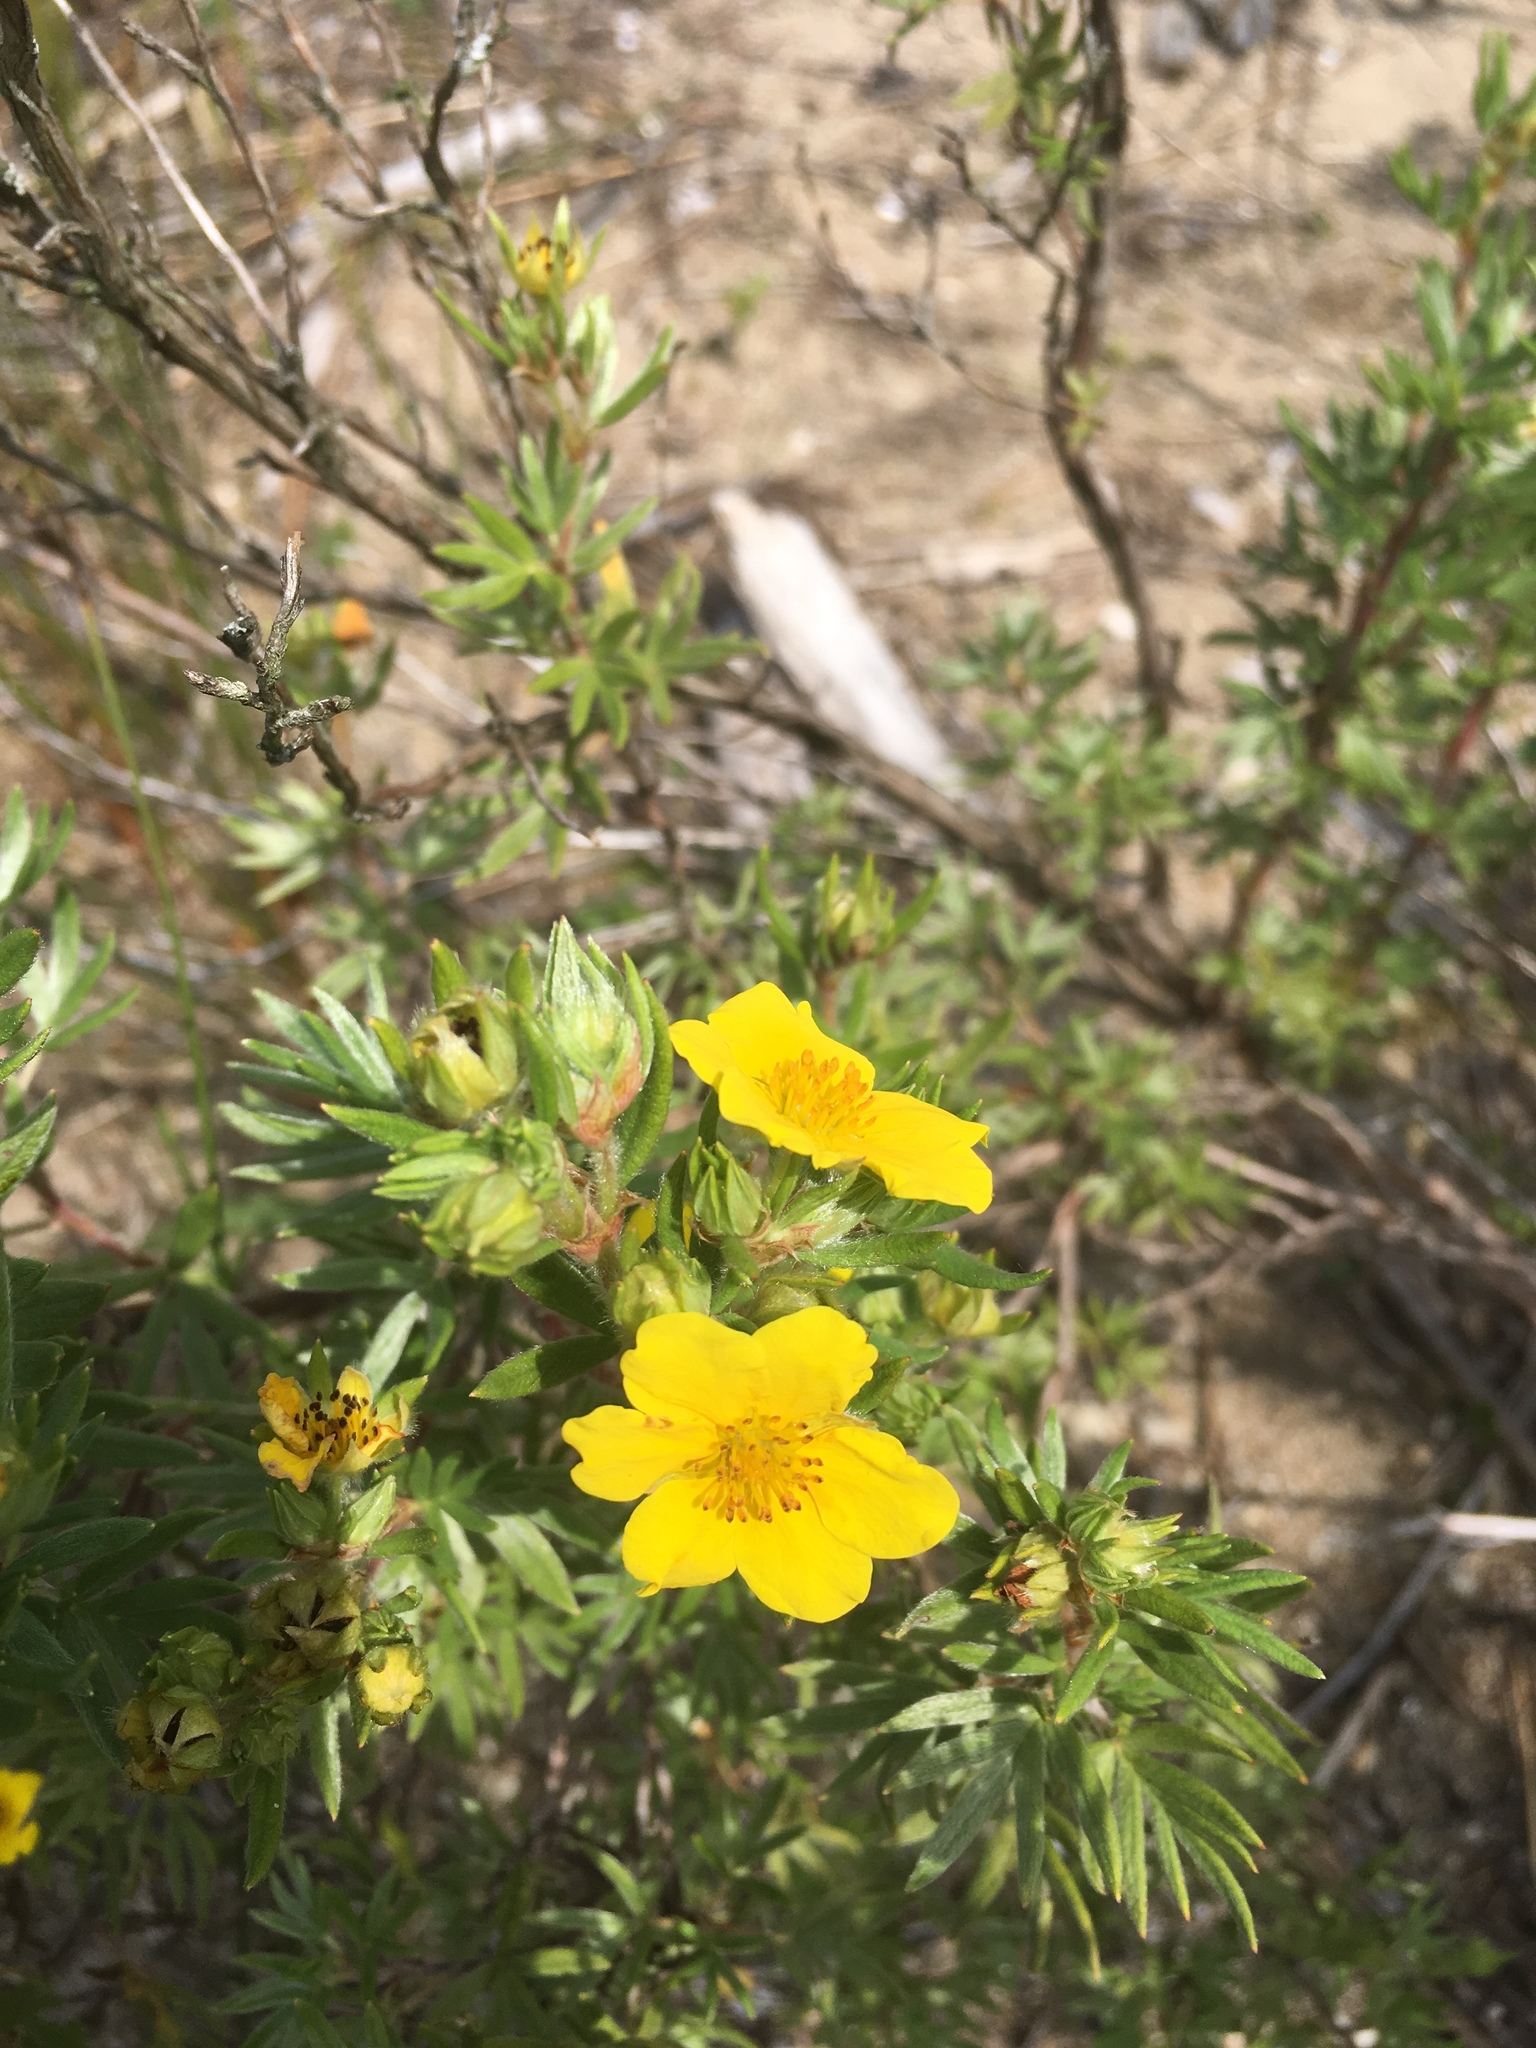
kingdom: Plantae
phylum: Tracheophyta
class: Magnoliopsida
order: Rosales
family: Rosaceae
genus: Dasiphora
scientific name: Dasiphora fruticosa
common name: Shrubby cinquefoil
